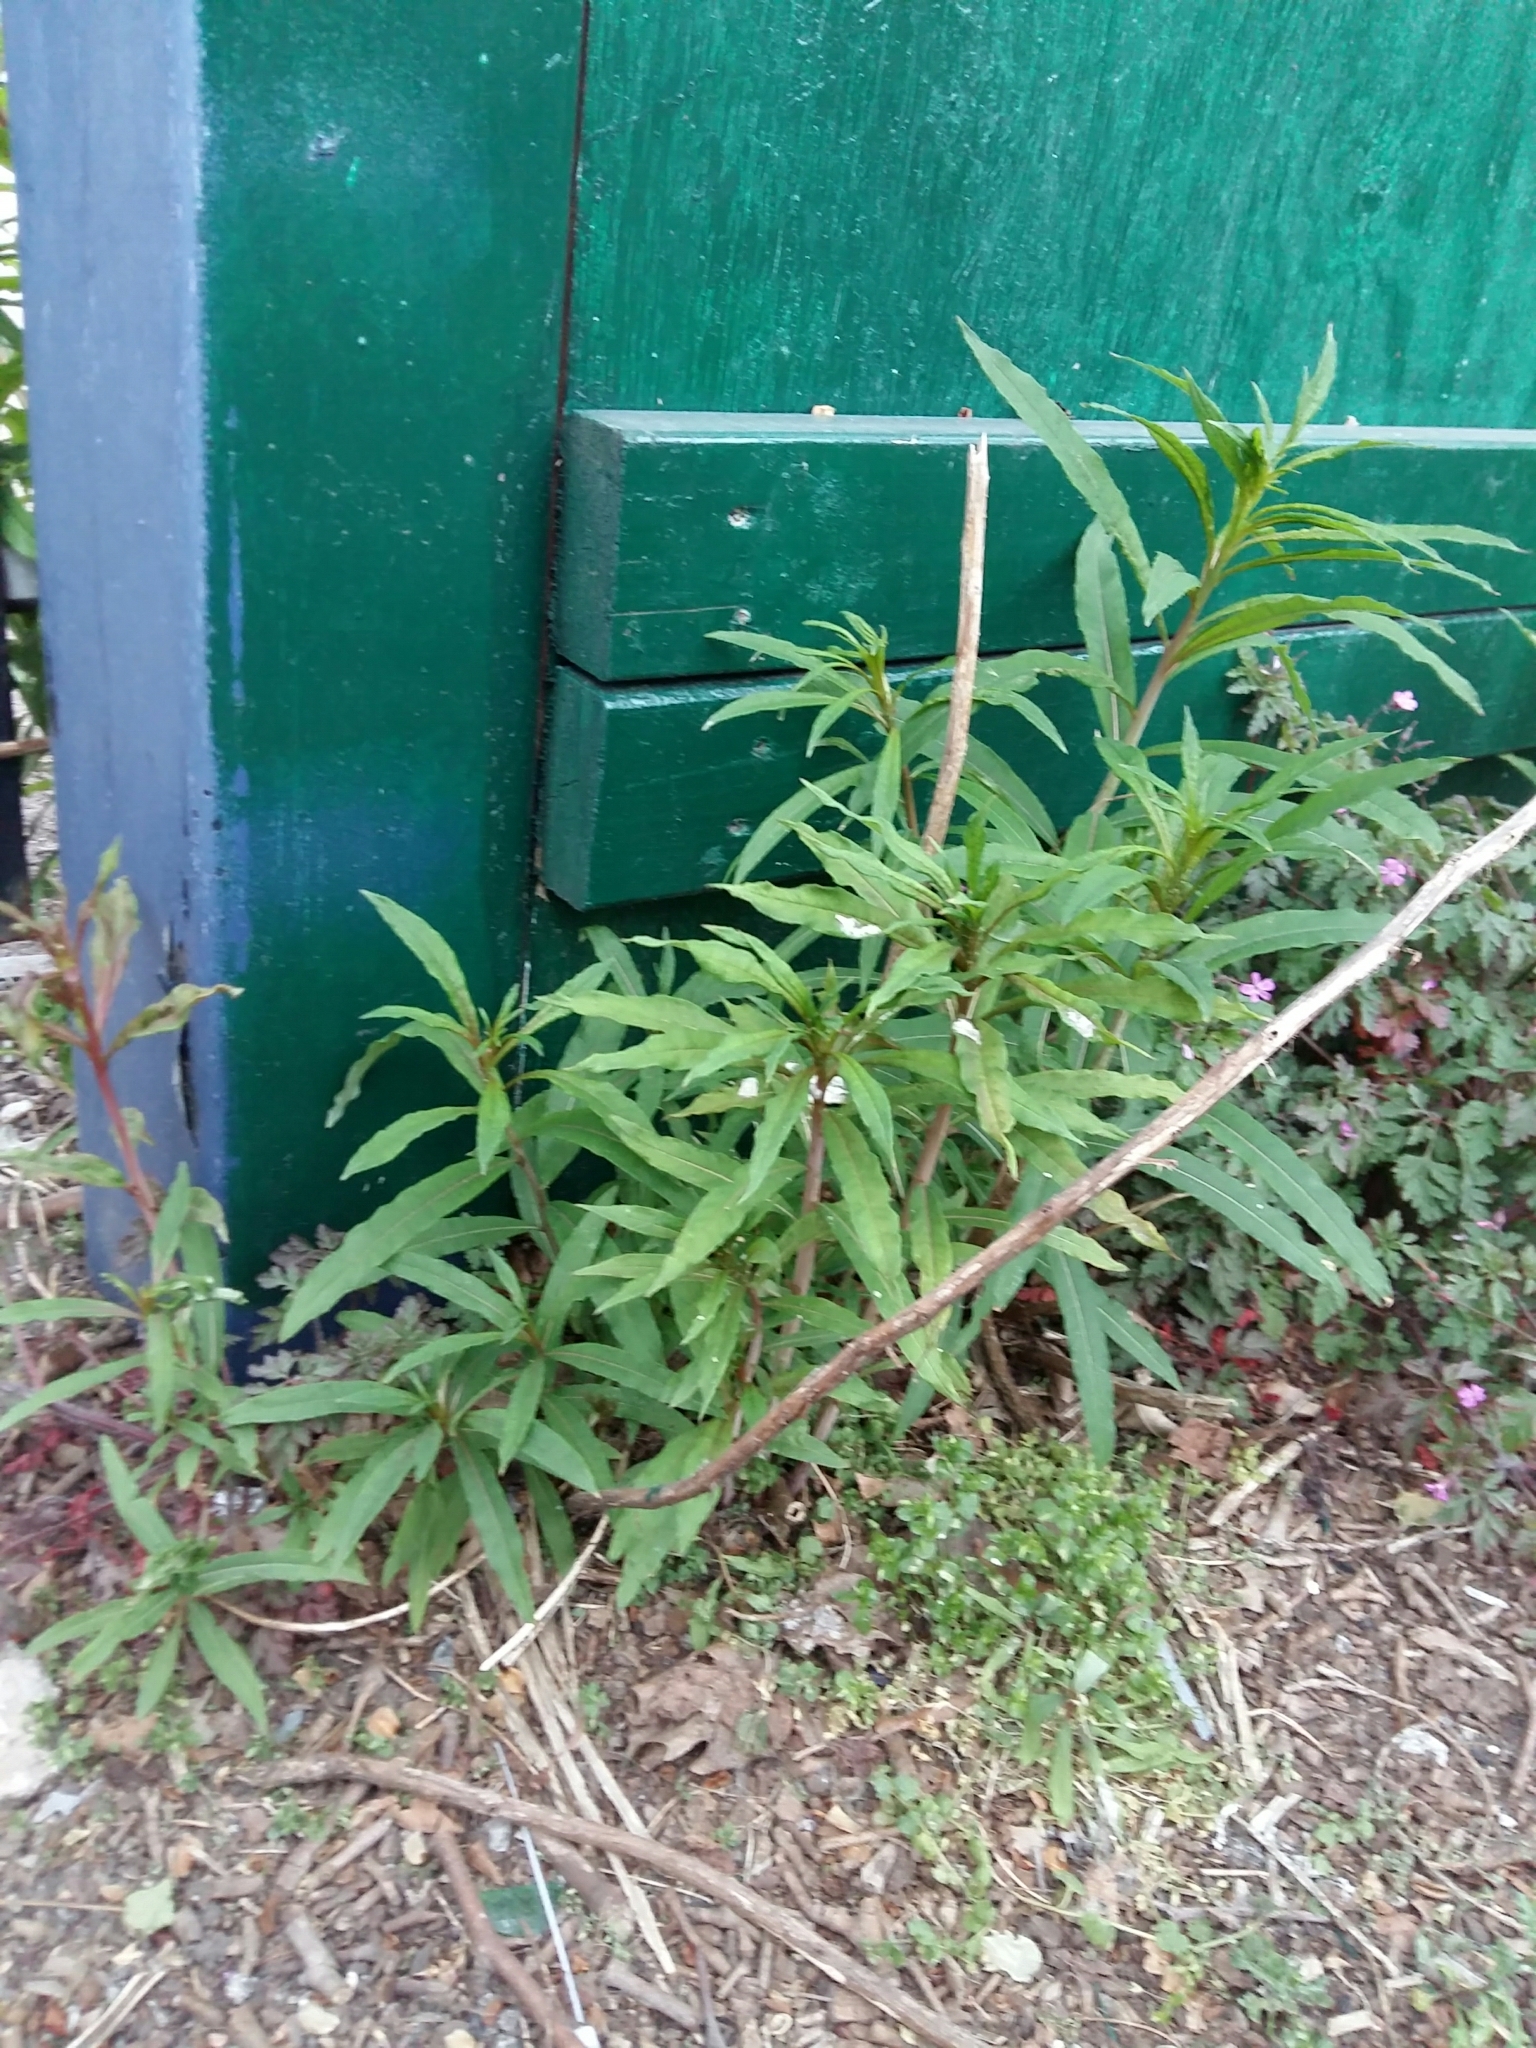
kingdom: Plantae
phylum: Tracheophyta
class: Magnoliopsida
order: Myrtales
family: Onagraceae
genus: Chamaenerion
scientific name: Chamaenerion angustifolium
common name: Fireweed
